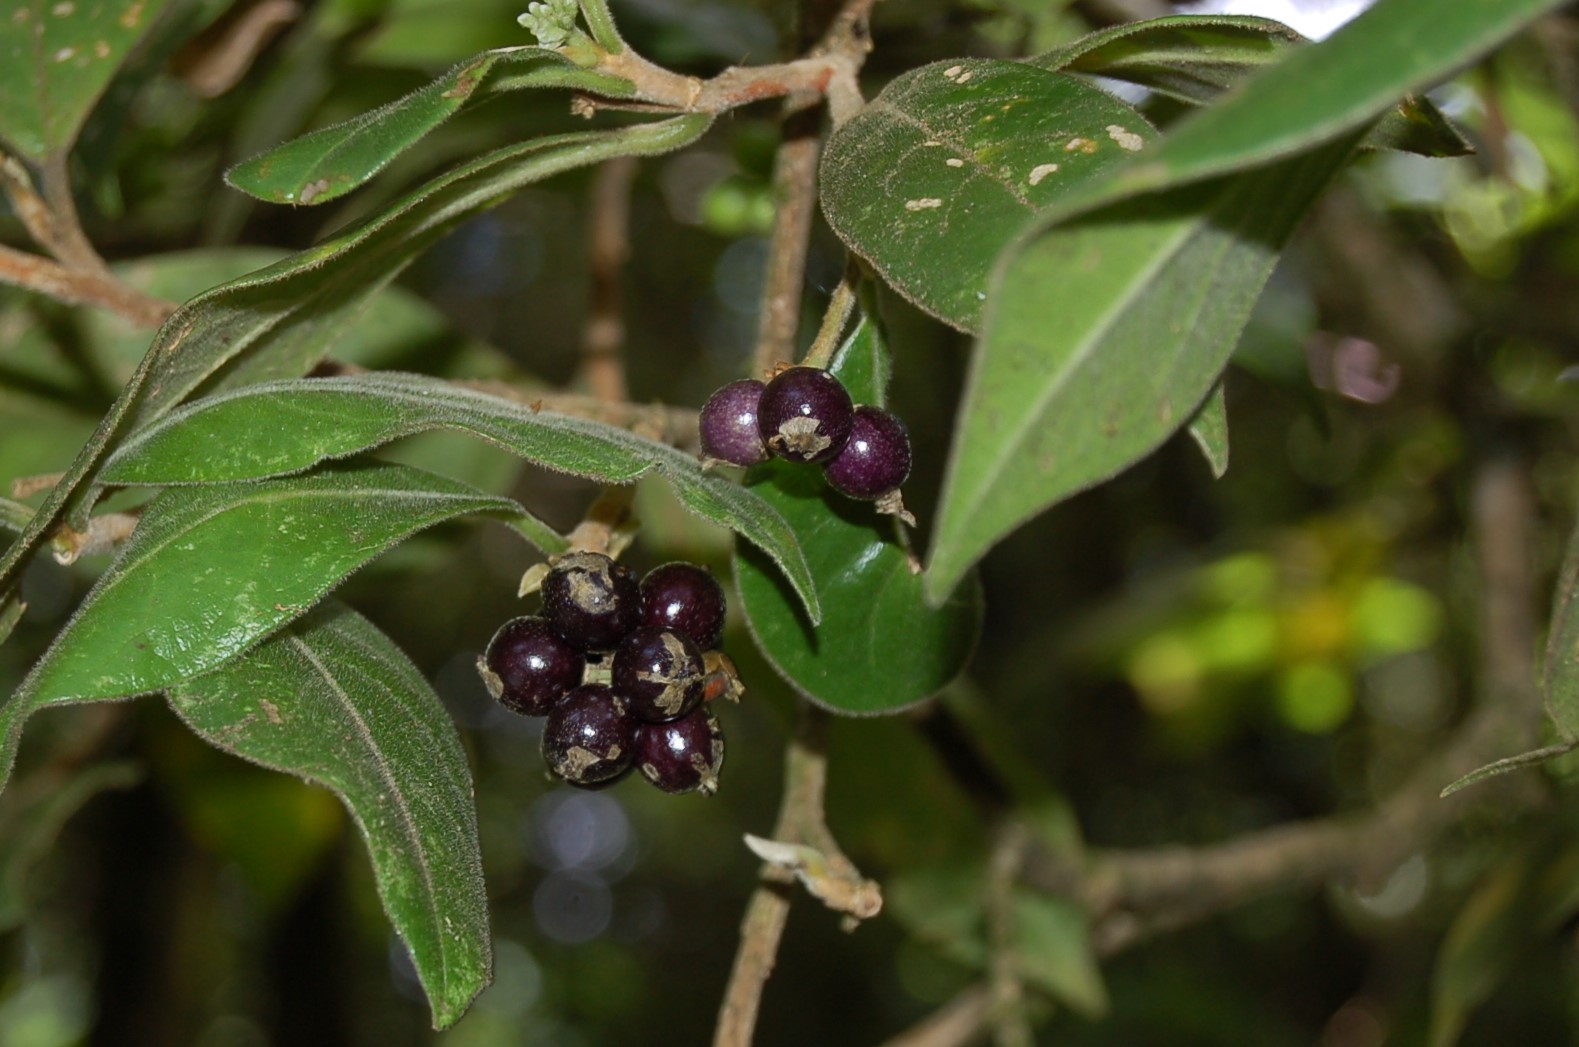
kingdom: Plantae
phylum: Tracheophyta
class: Magnoliopsida
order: Malvales
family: Thymelaeaceae
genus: Daphnopsis
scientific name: Daphnopsis selerorum
